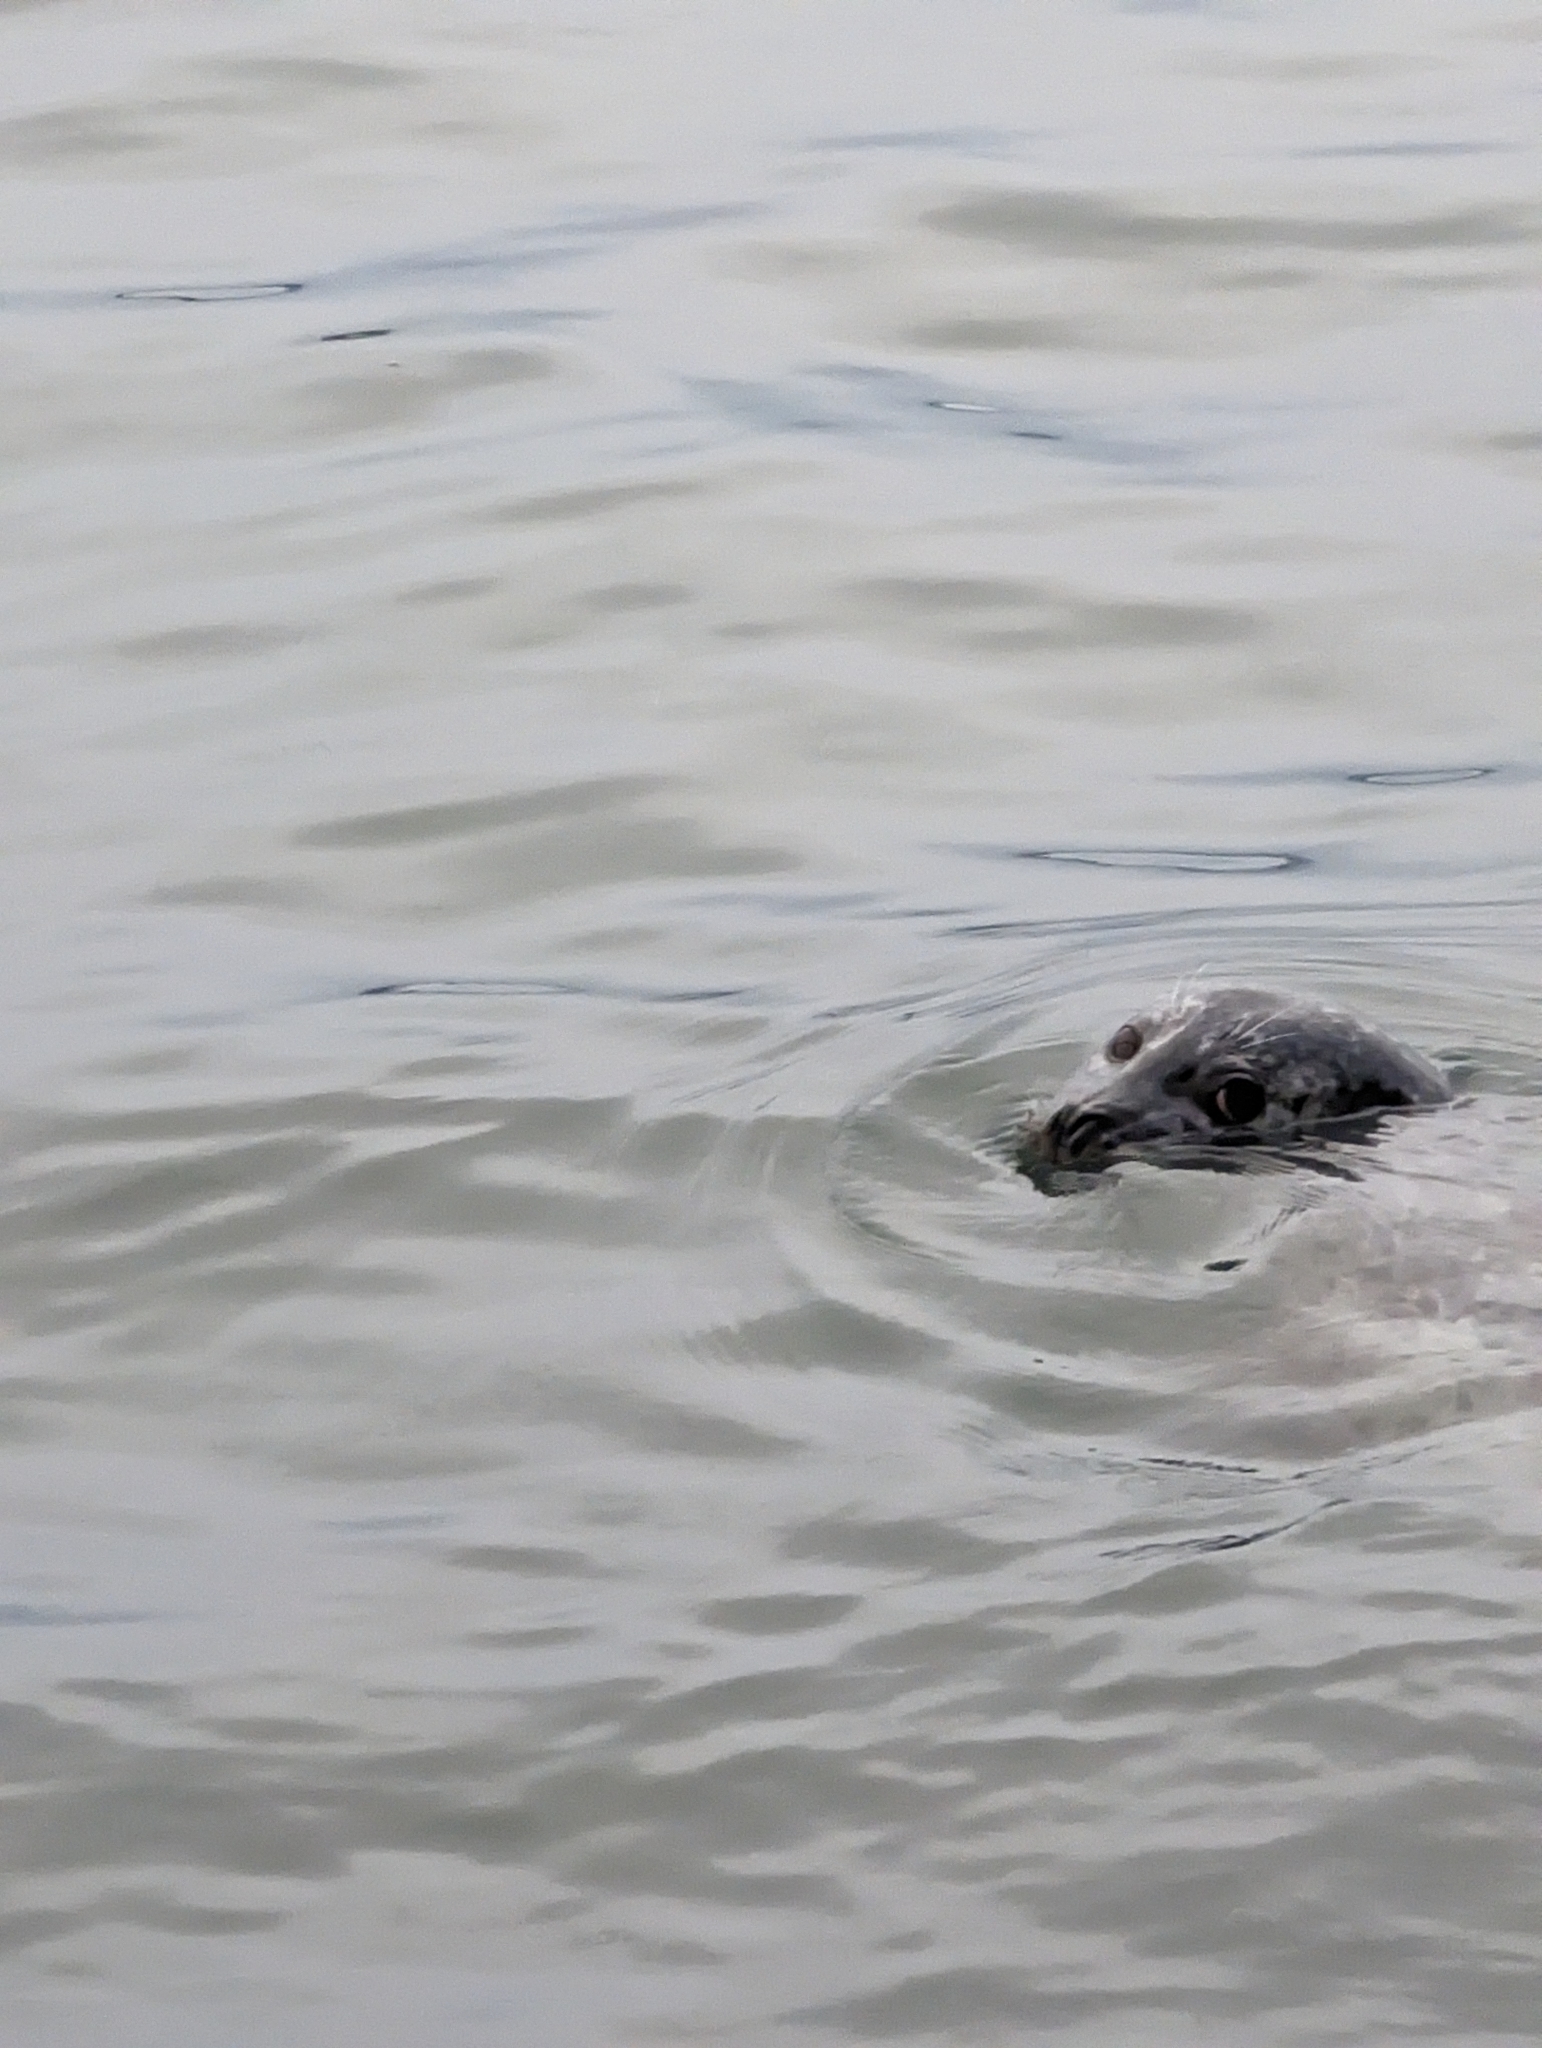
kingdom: Animalia
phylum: Chordata
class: Mammalia
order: Carnivora
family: Phocidae
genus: Phoca
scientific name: Phoca vitulina
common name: Harbor seal
